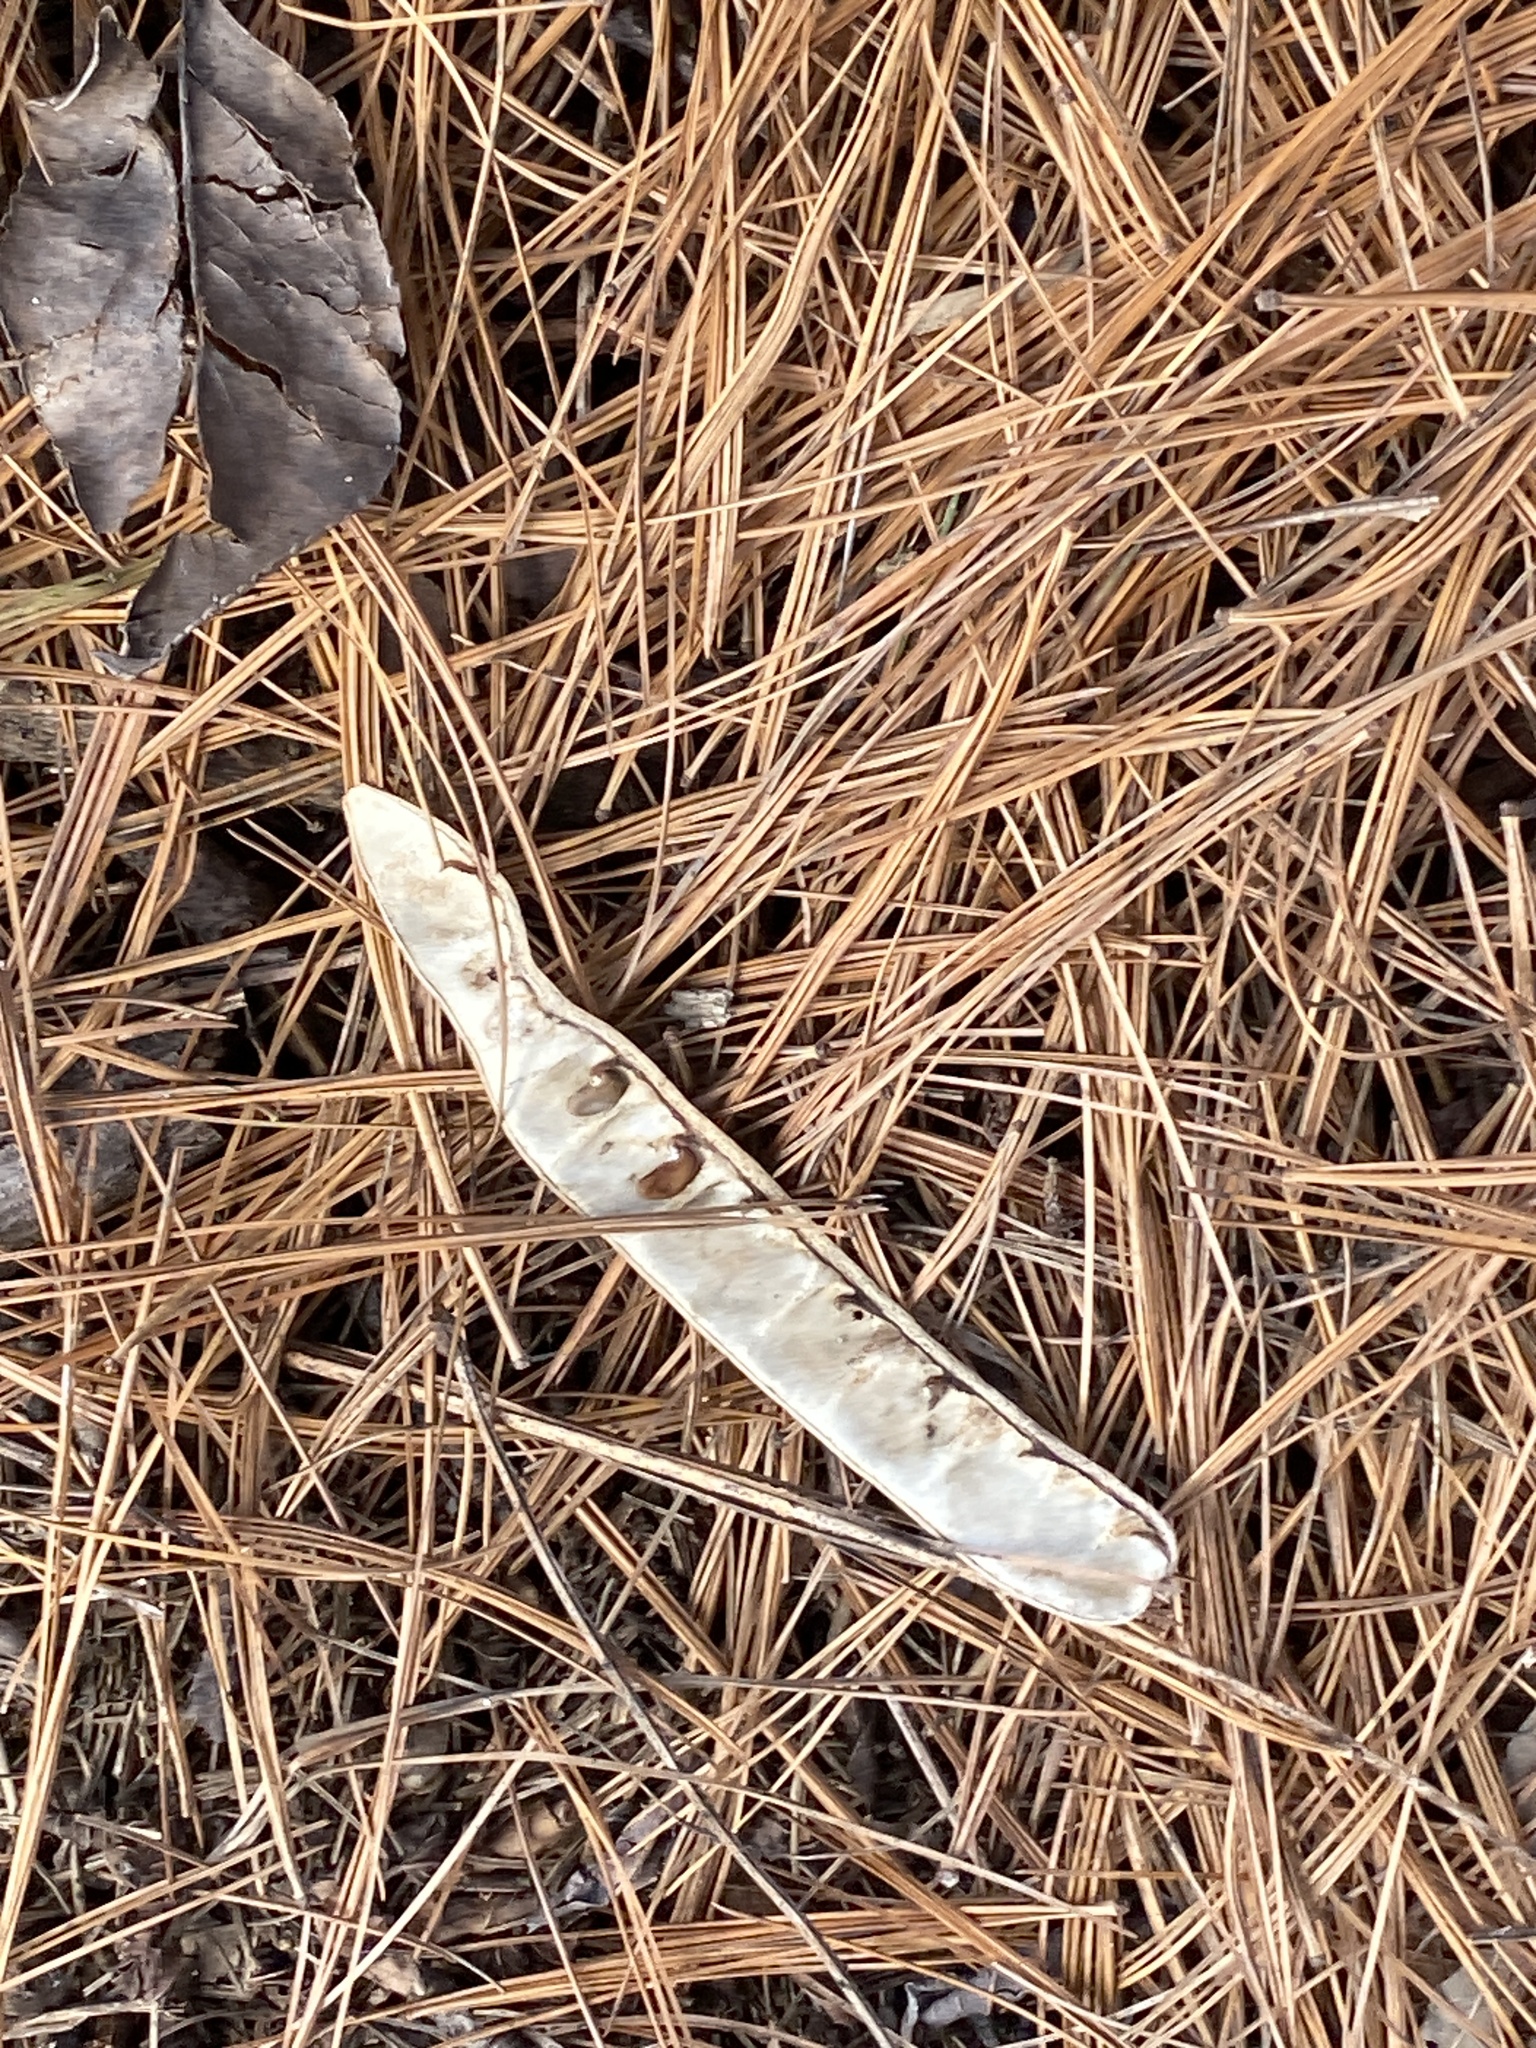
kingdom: Plantae
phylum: Tracheophyta
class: Magnoliopsida
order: Fabales
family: Fabaceae
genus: Robinia
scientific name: Robinia pseudoacacia
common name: Black locust
